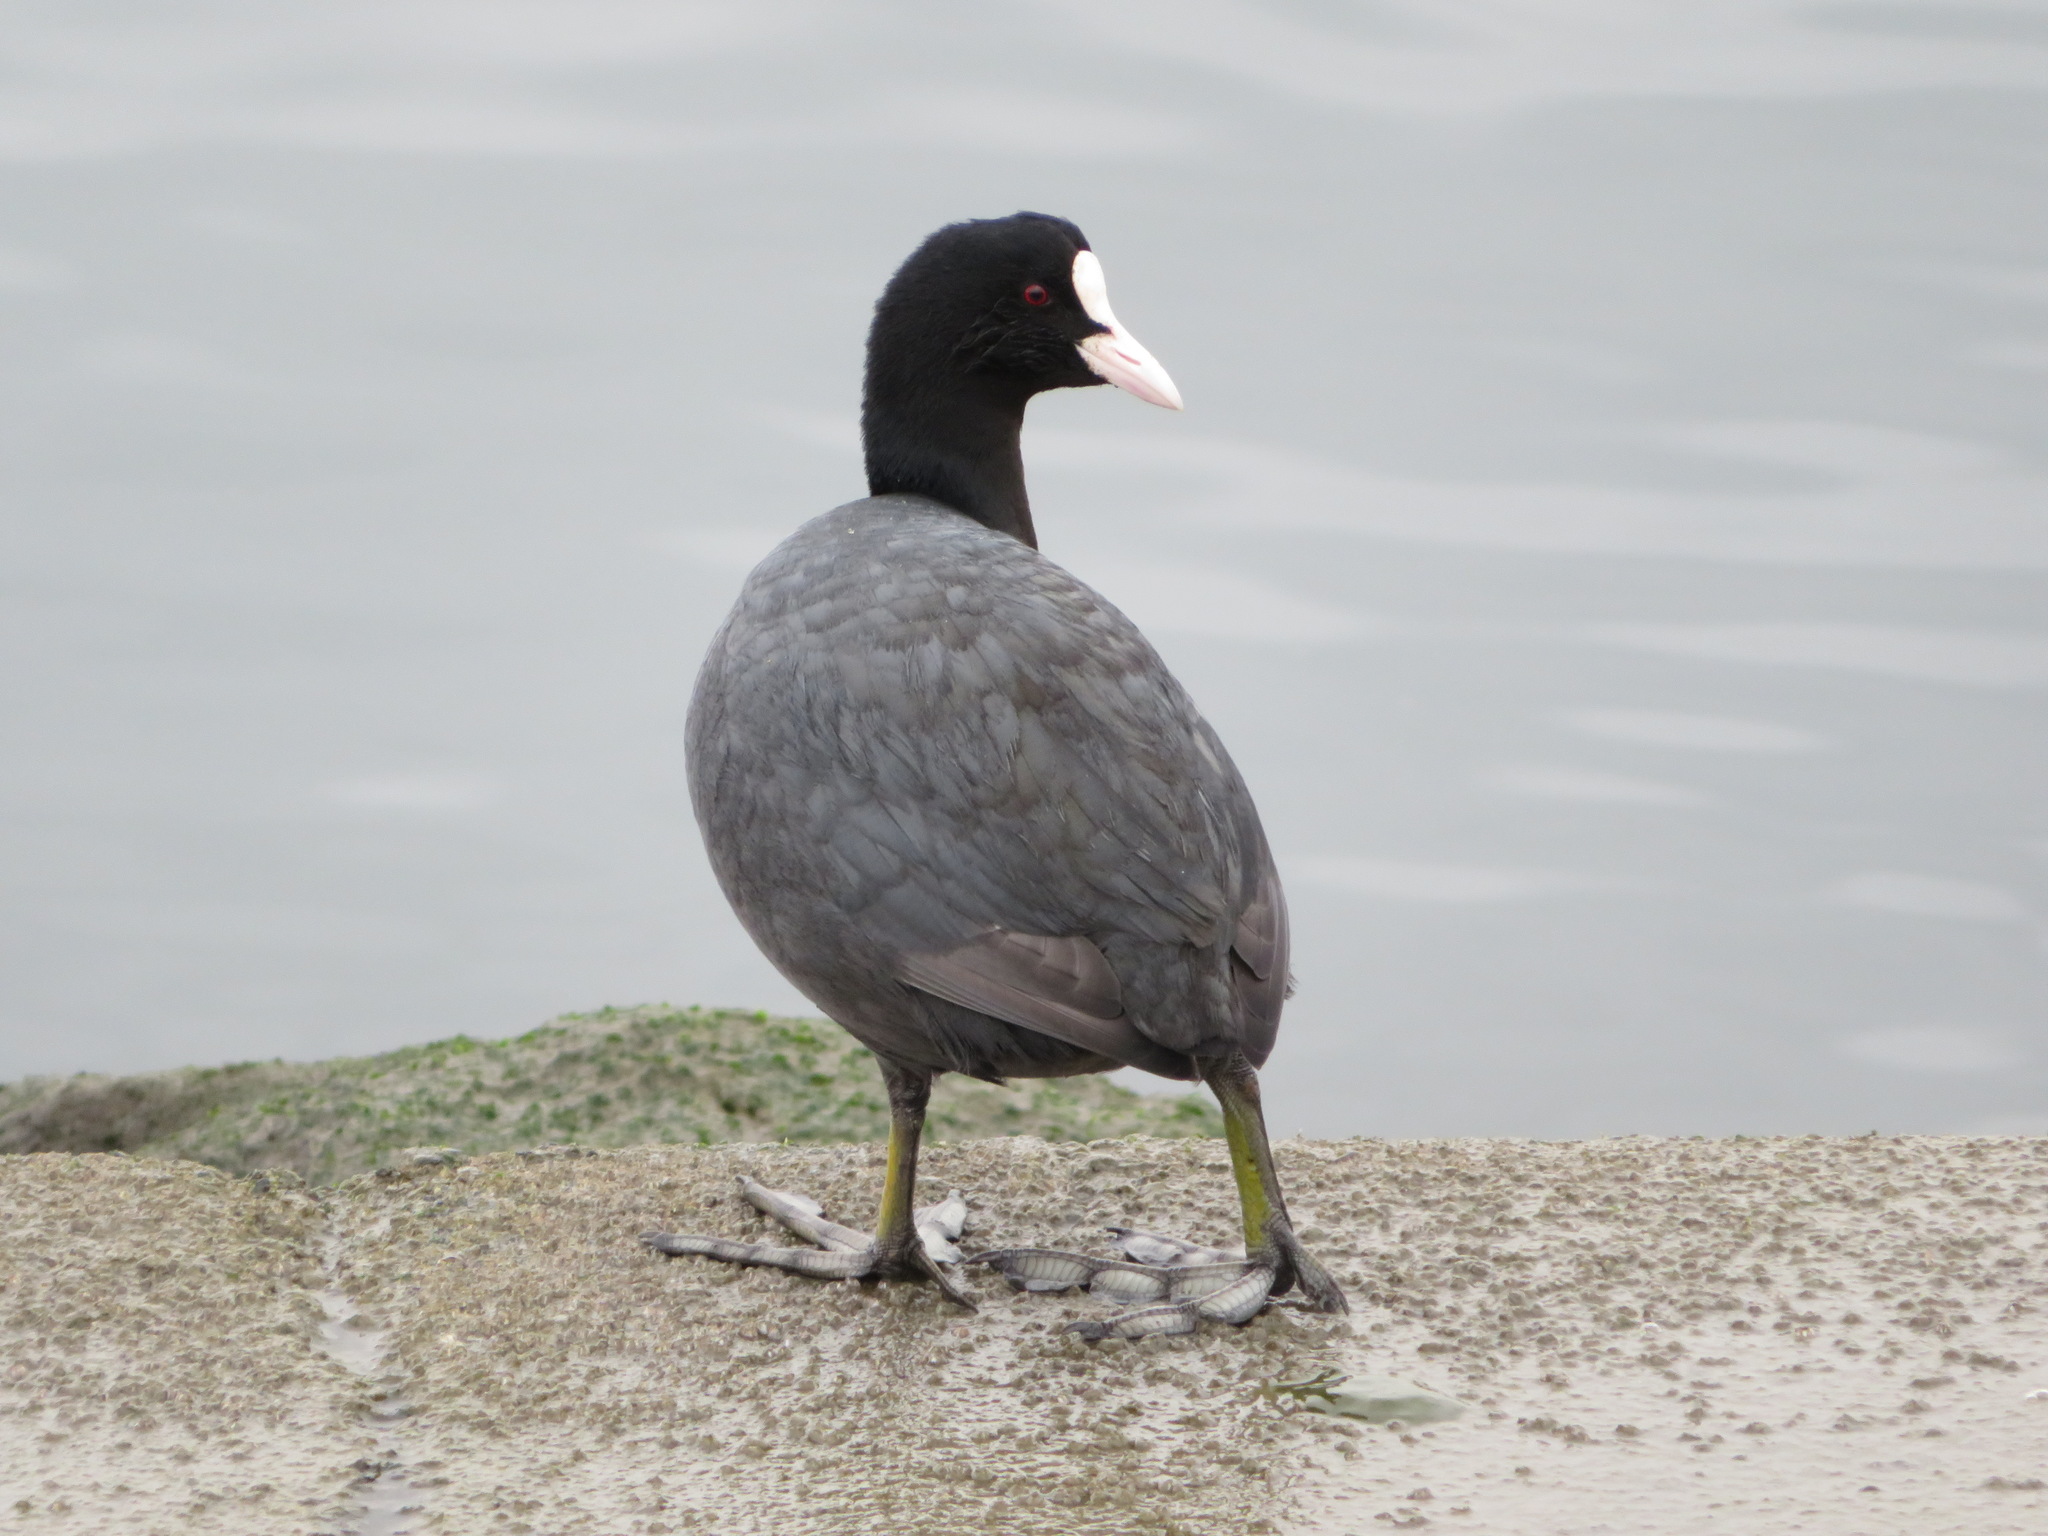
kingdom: Animalia
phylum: Chordata
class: Aves
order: Gruiformes
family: Rallidae
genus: Fulica
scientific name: Fulica atra
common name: Eurasian coot
